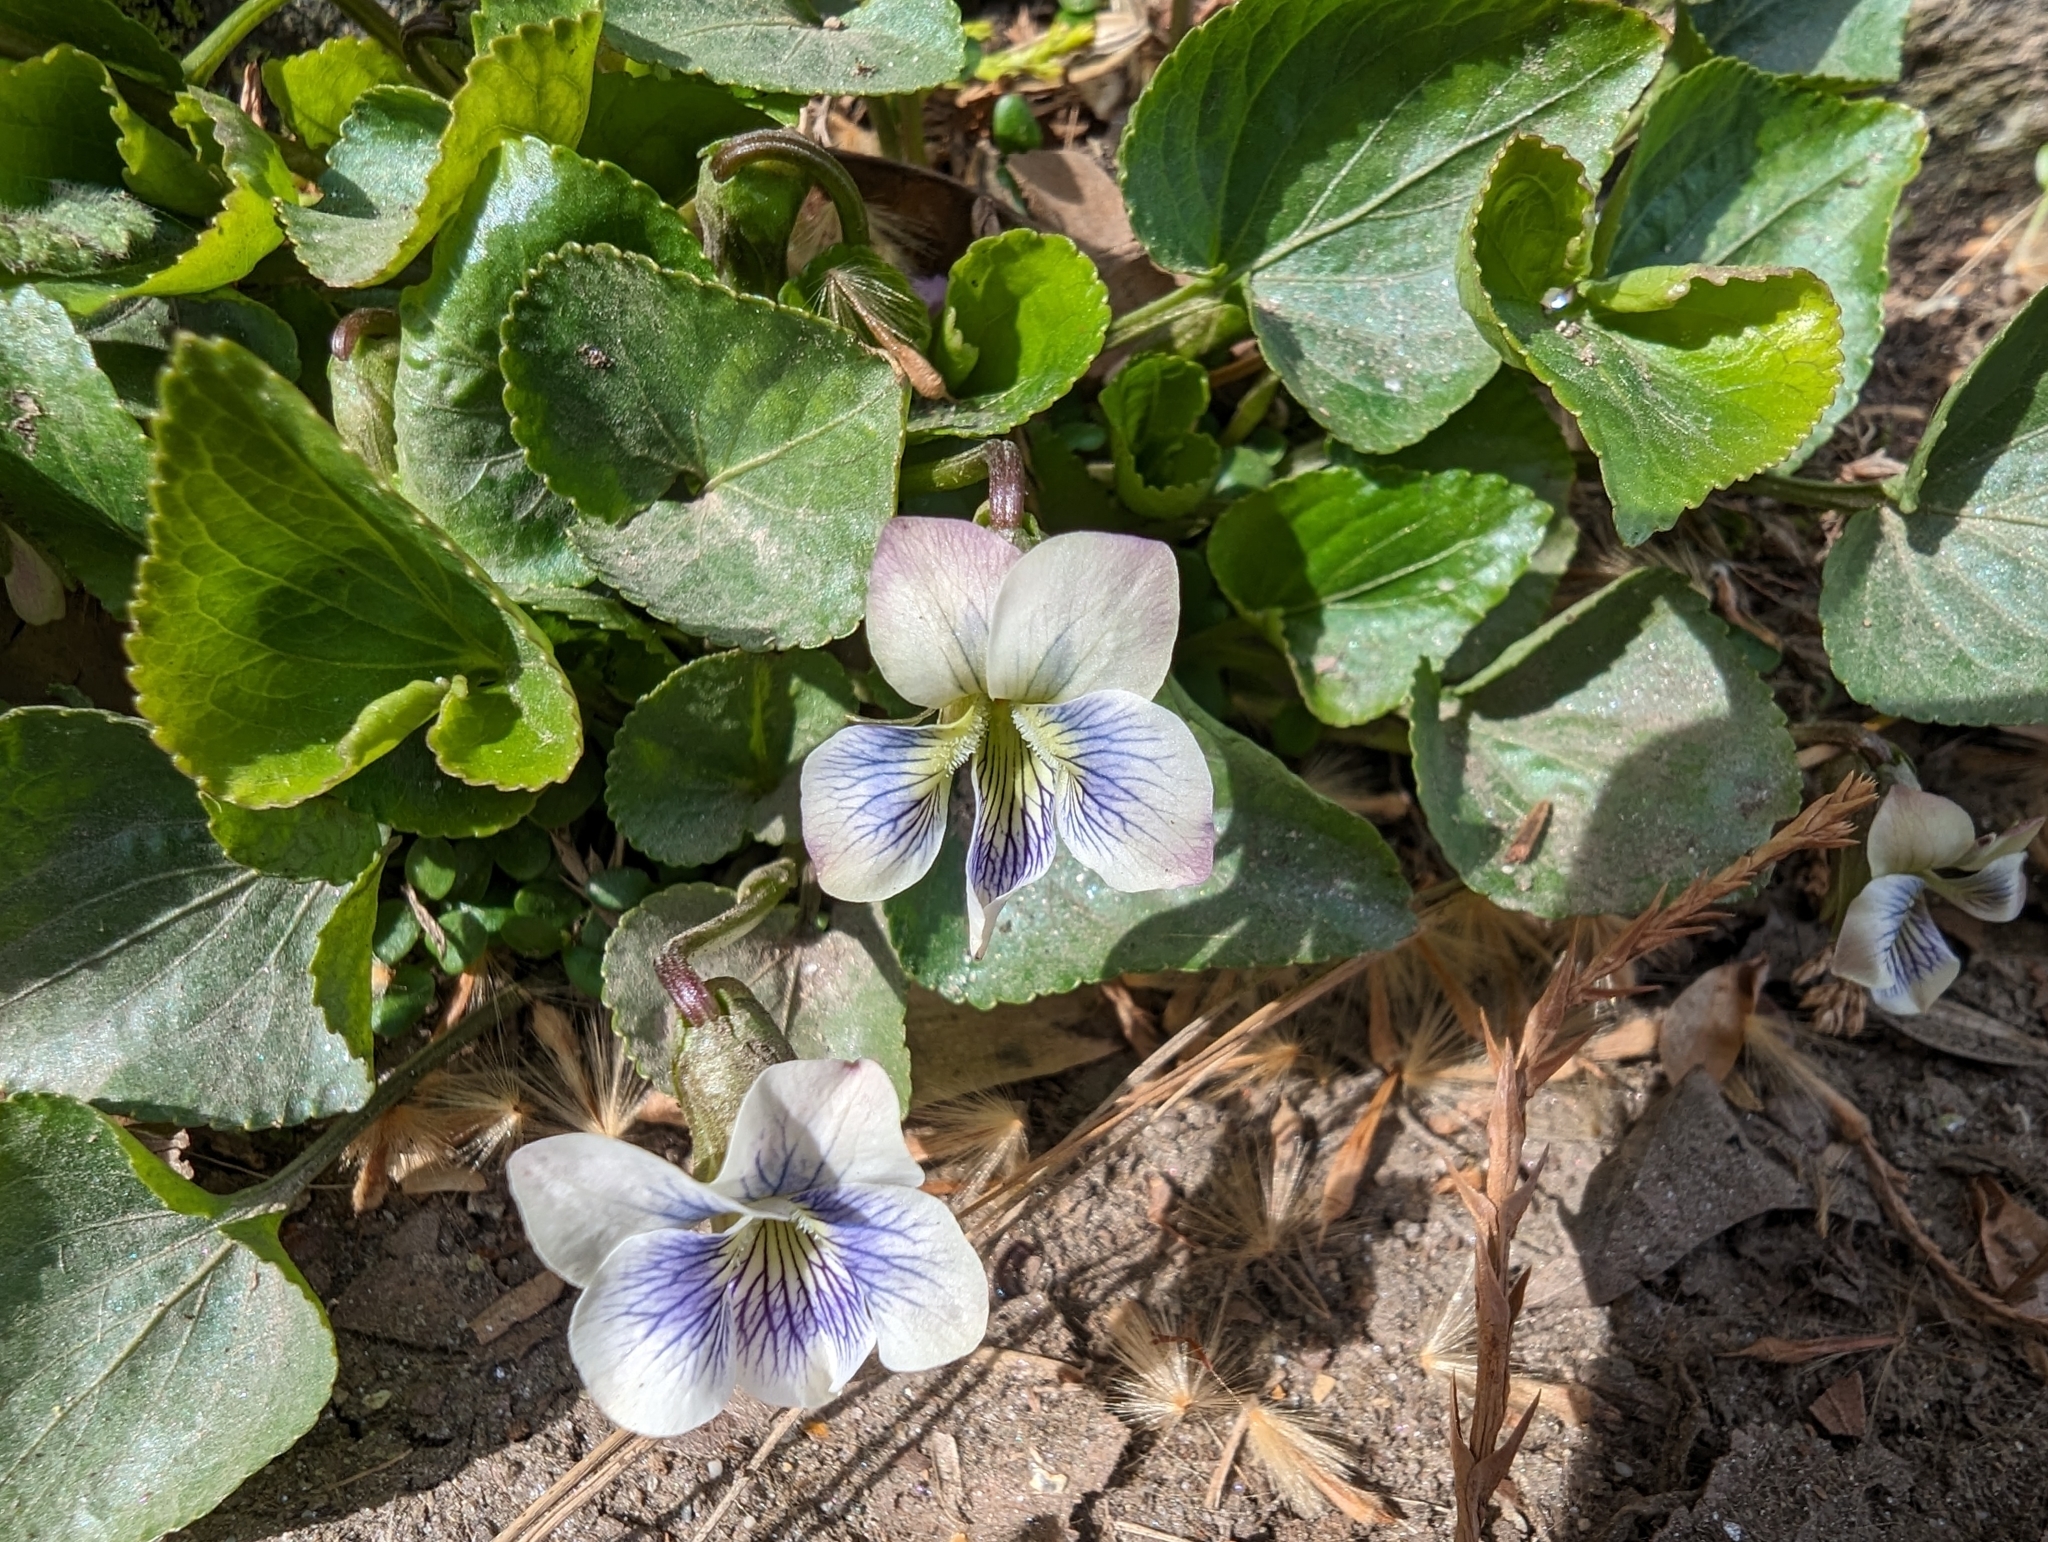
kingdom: Plantae
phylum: Tracheophyta
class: Magnoliopsida
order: Malpighiales
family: Violaceae
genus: Viola
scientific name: Viola sororia
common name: Dooryard violet
